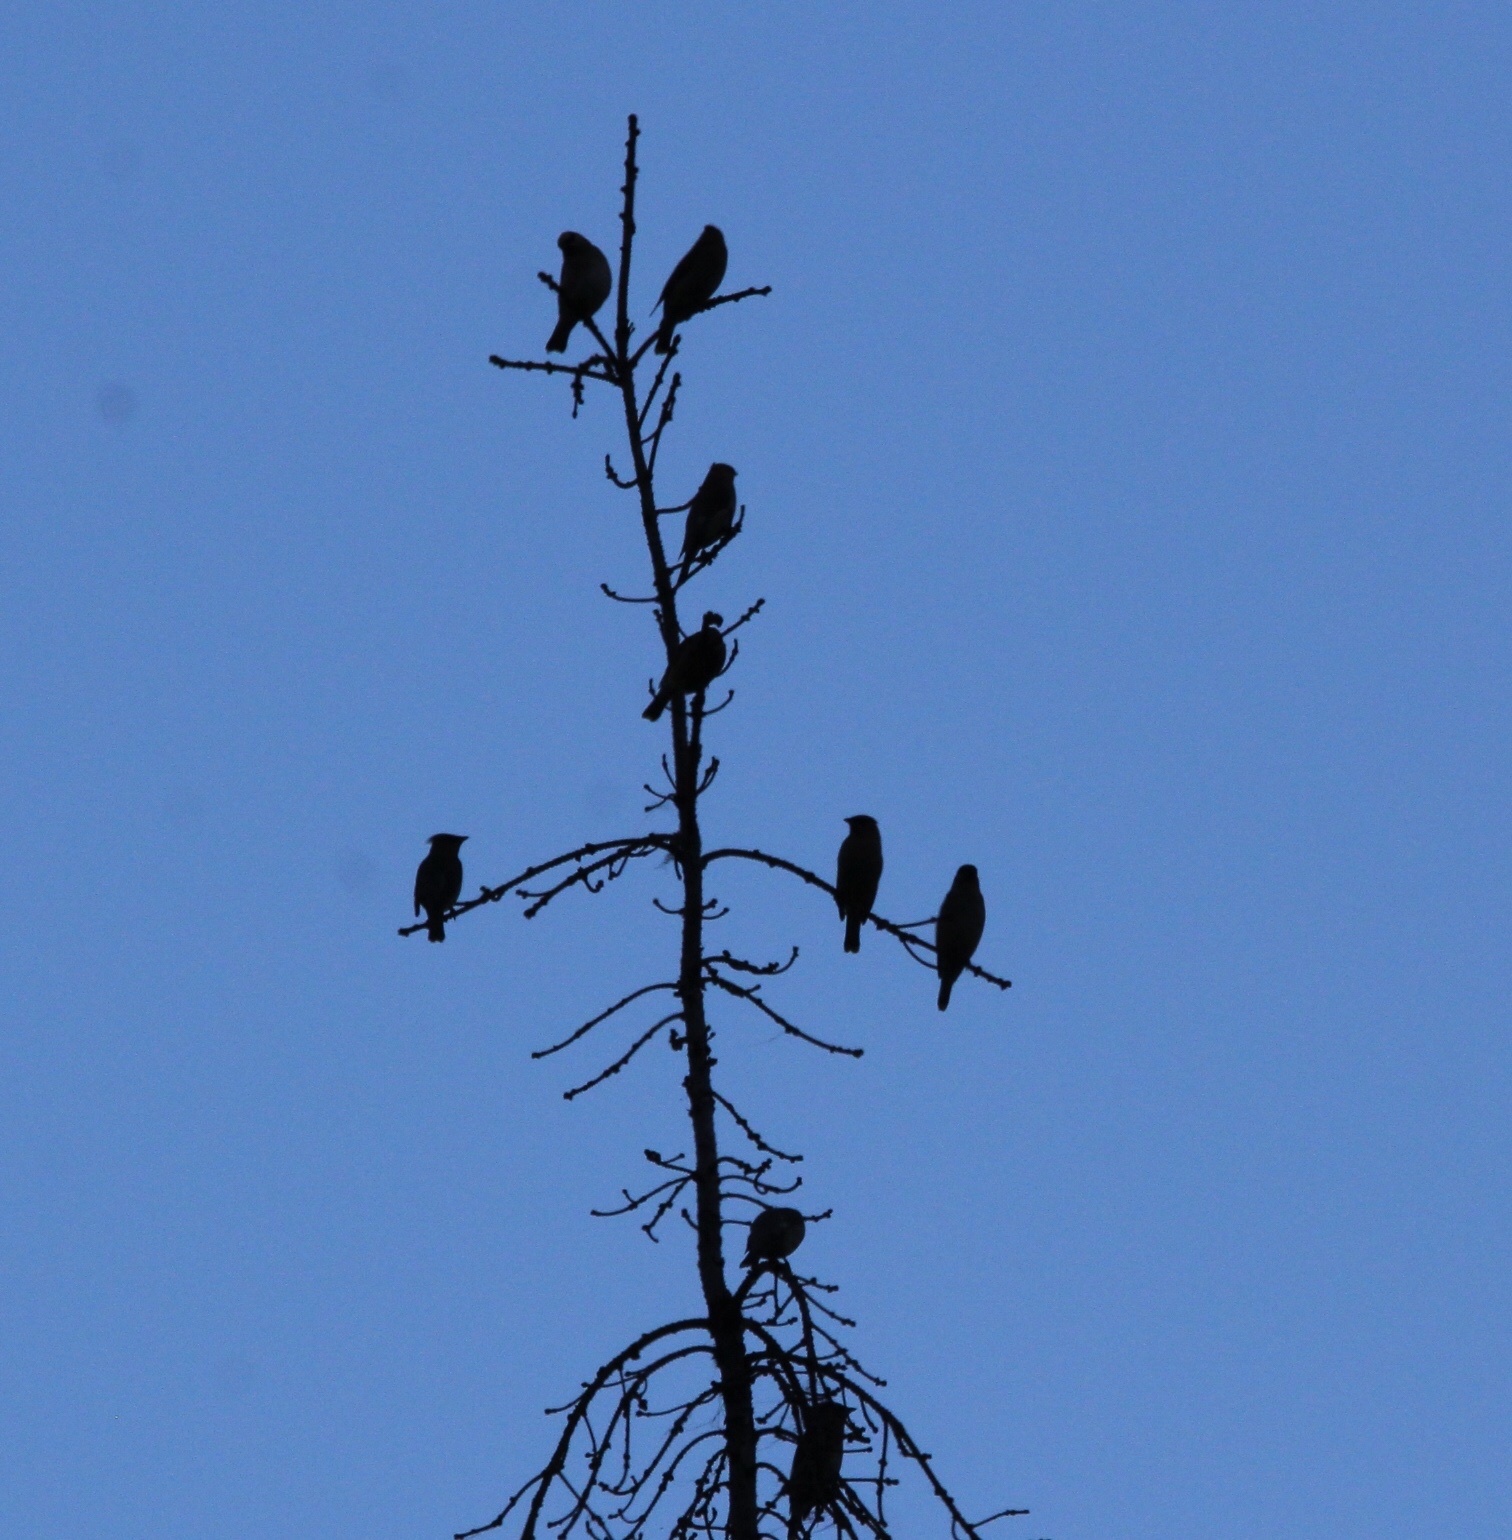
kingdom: Animalia
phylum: Chordata
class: Aves
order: Passeriformes
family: Bombycillidae
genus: Bombycilla
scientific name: Bombycilla cedrorum
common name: Cedar waxwing
